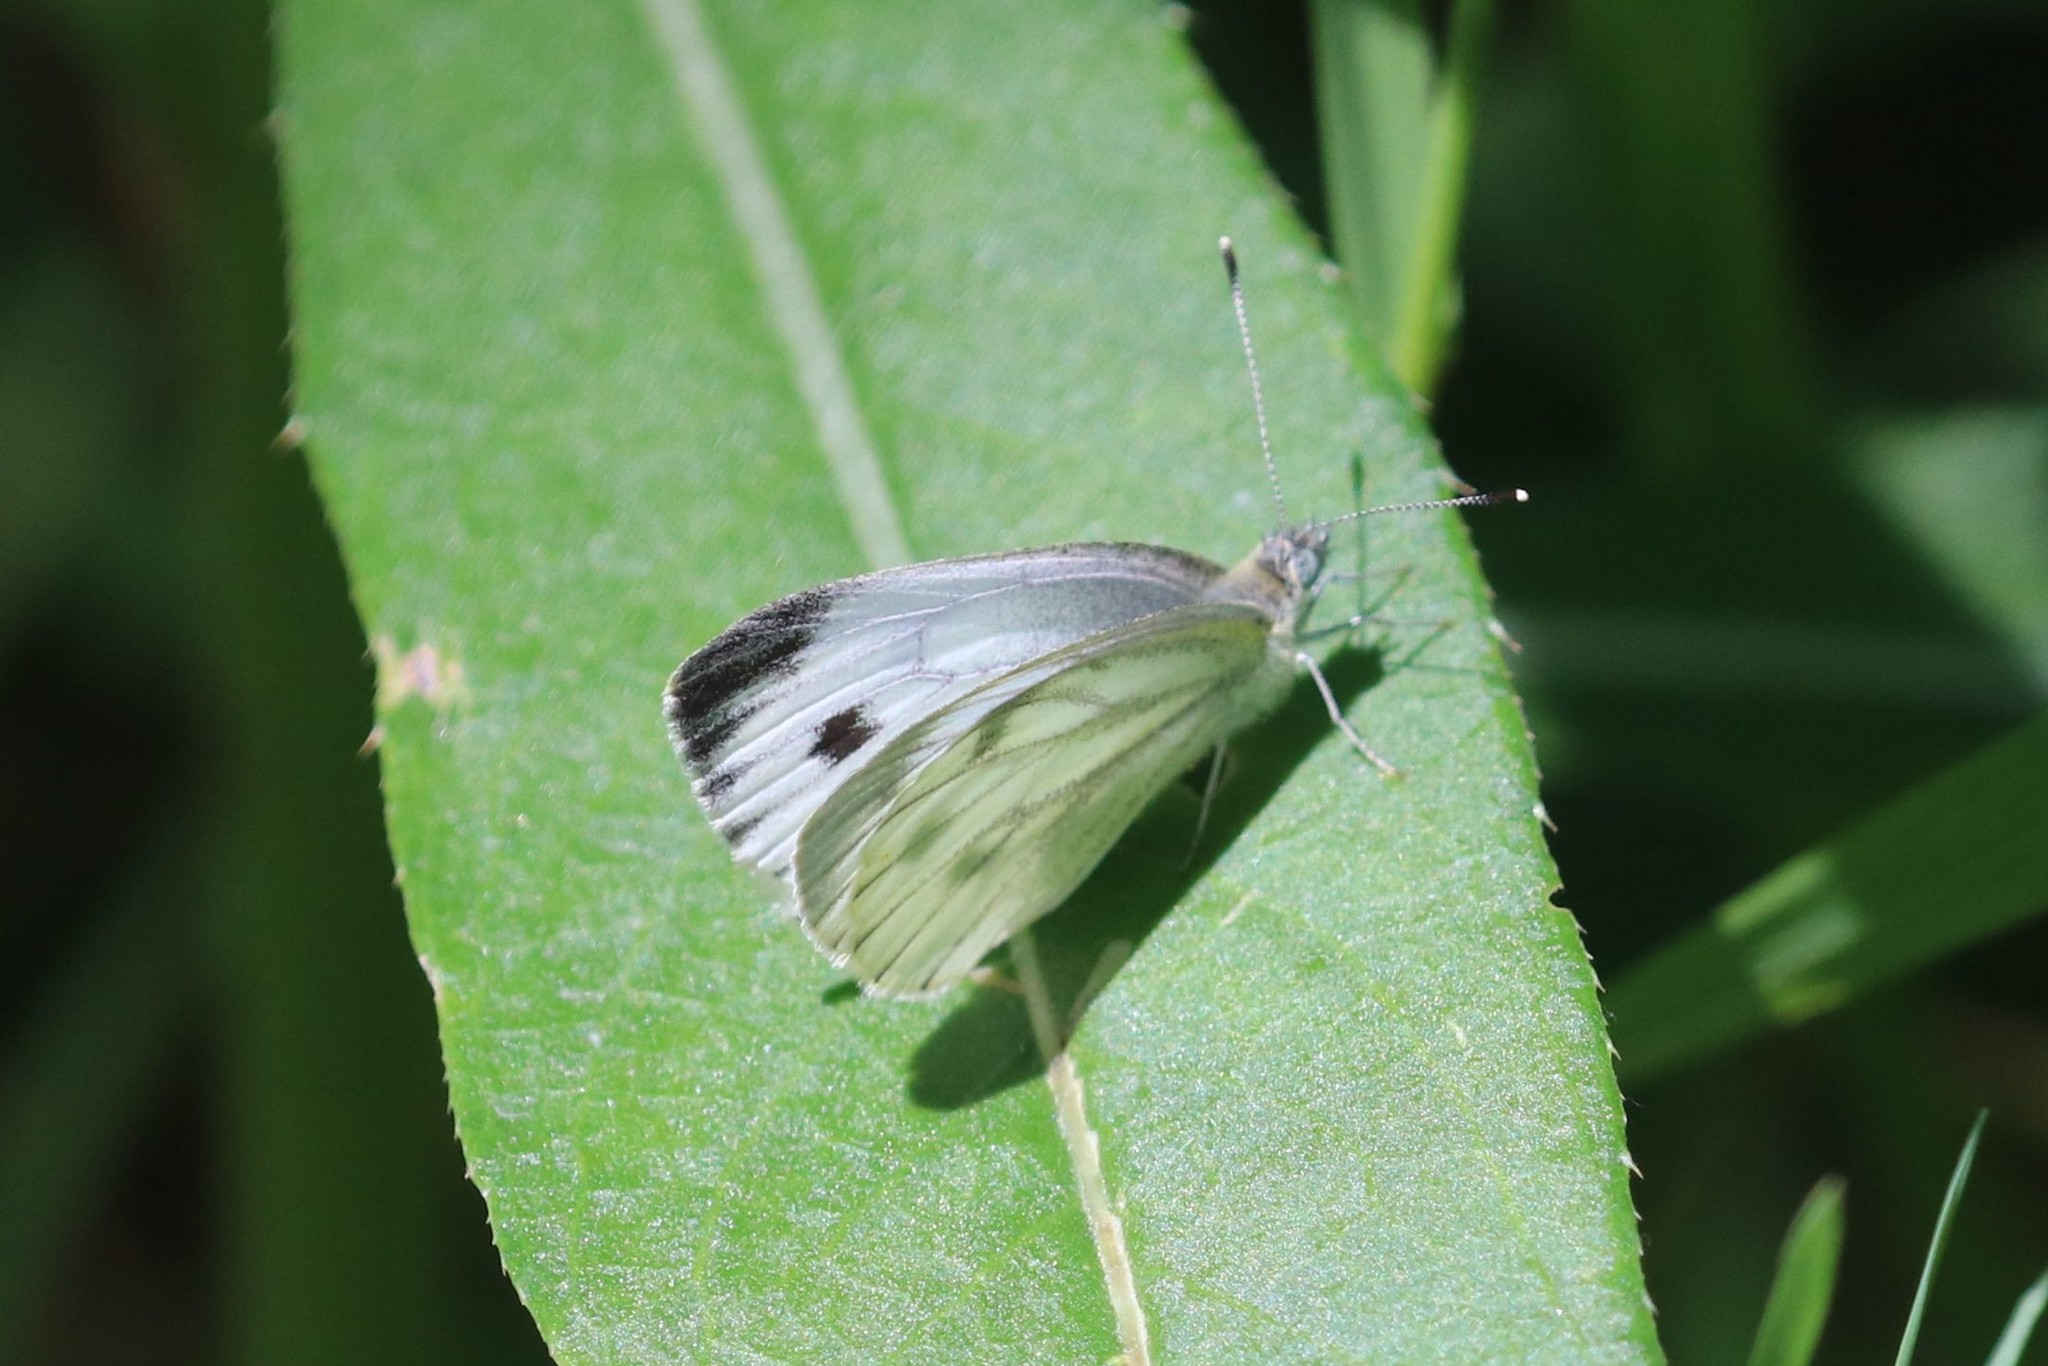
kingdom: Animalia
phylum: Arthropoda
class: Insecta
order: Lepidoptera
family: Pieridae
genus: Pieris
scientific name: Pieris napi
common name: Green-veined white
